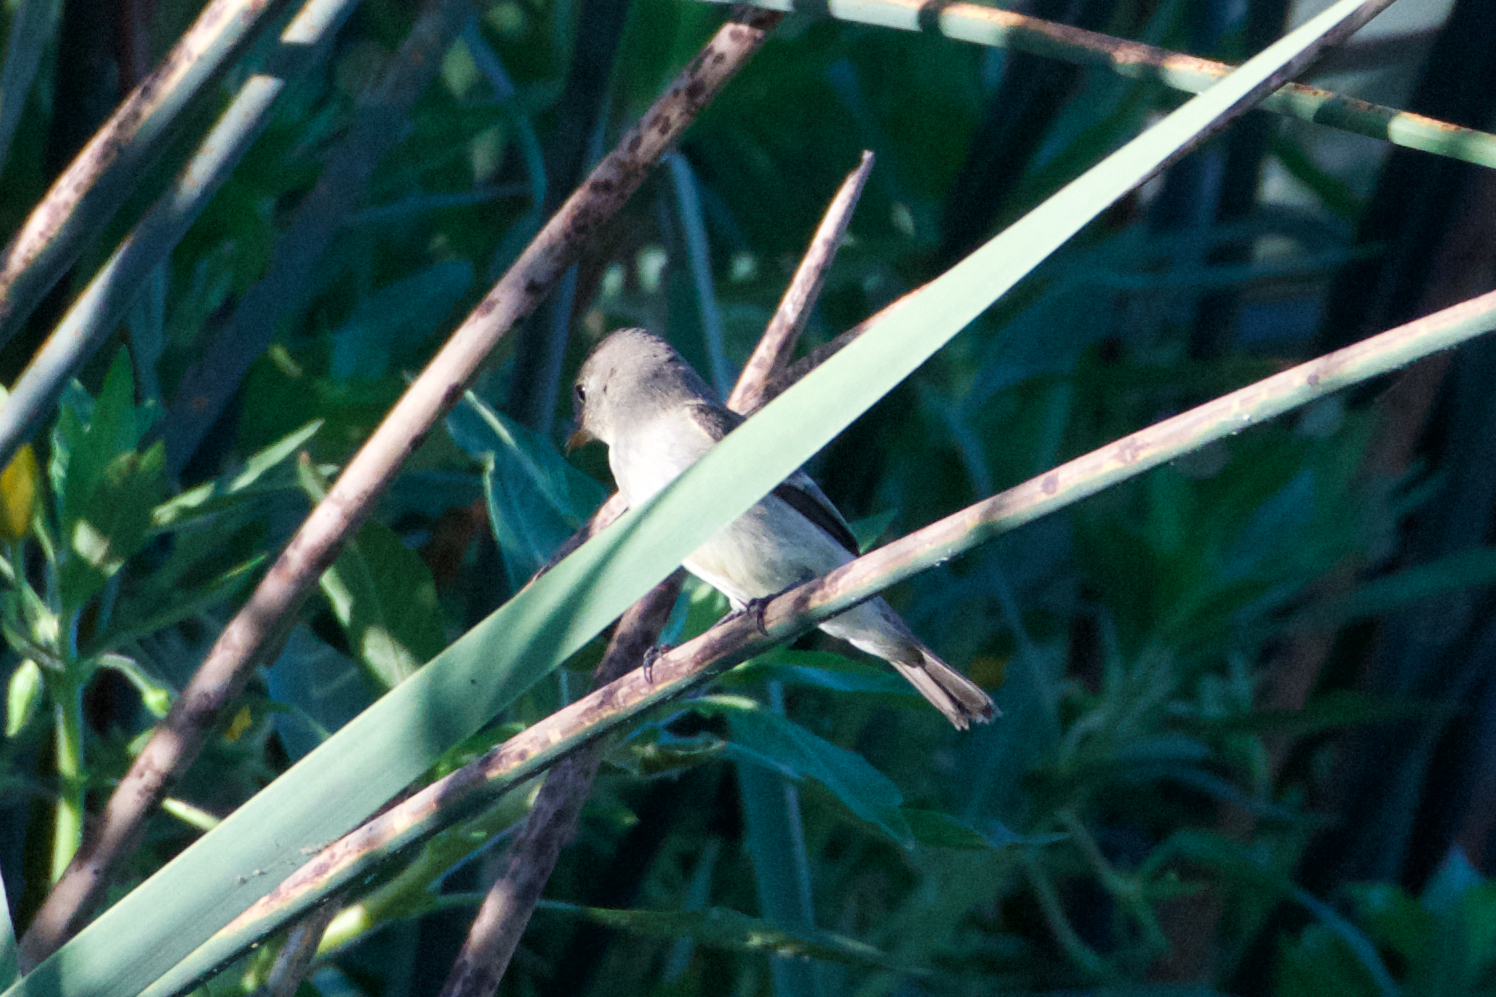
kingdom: Animalia
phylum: Chordata
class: Aves
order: Passeriformes
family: Tyrannidae
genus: Empidonax
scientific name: Empidonax traillii
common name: Willow flycatcher
